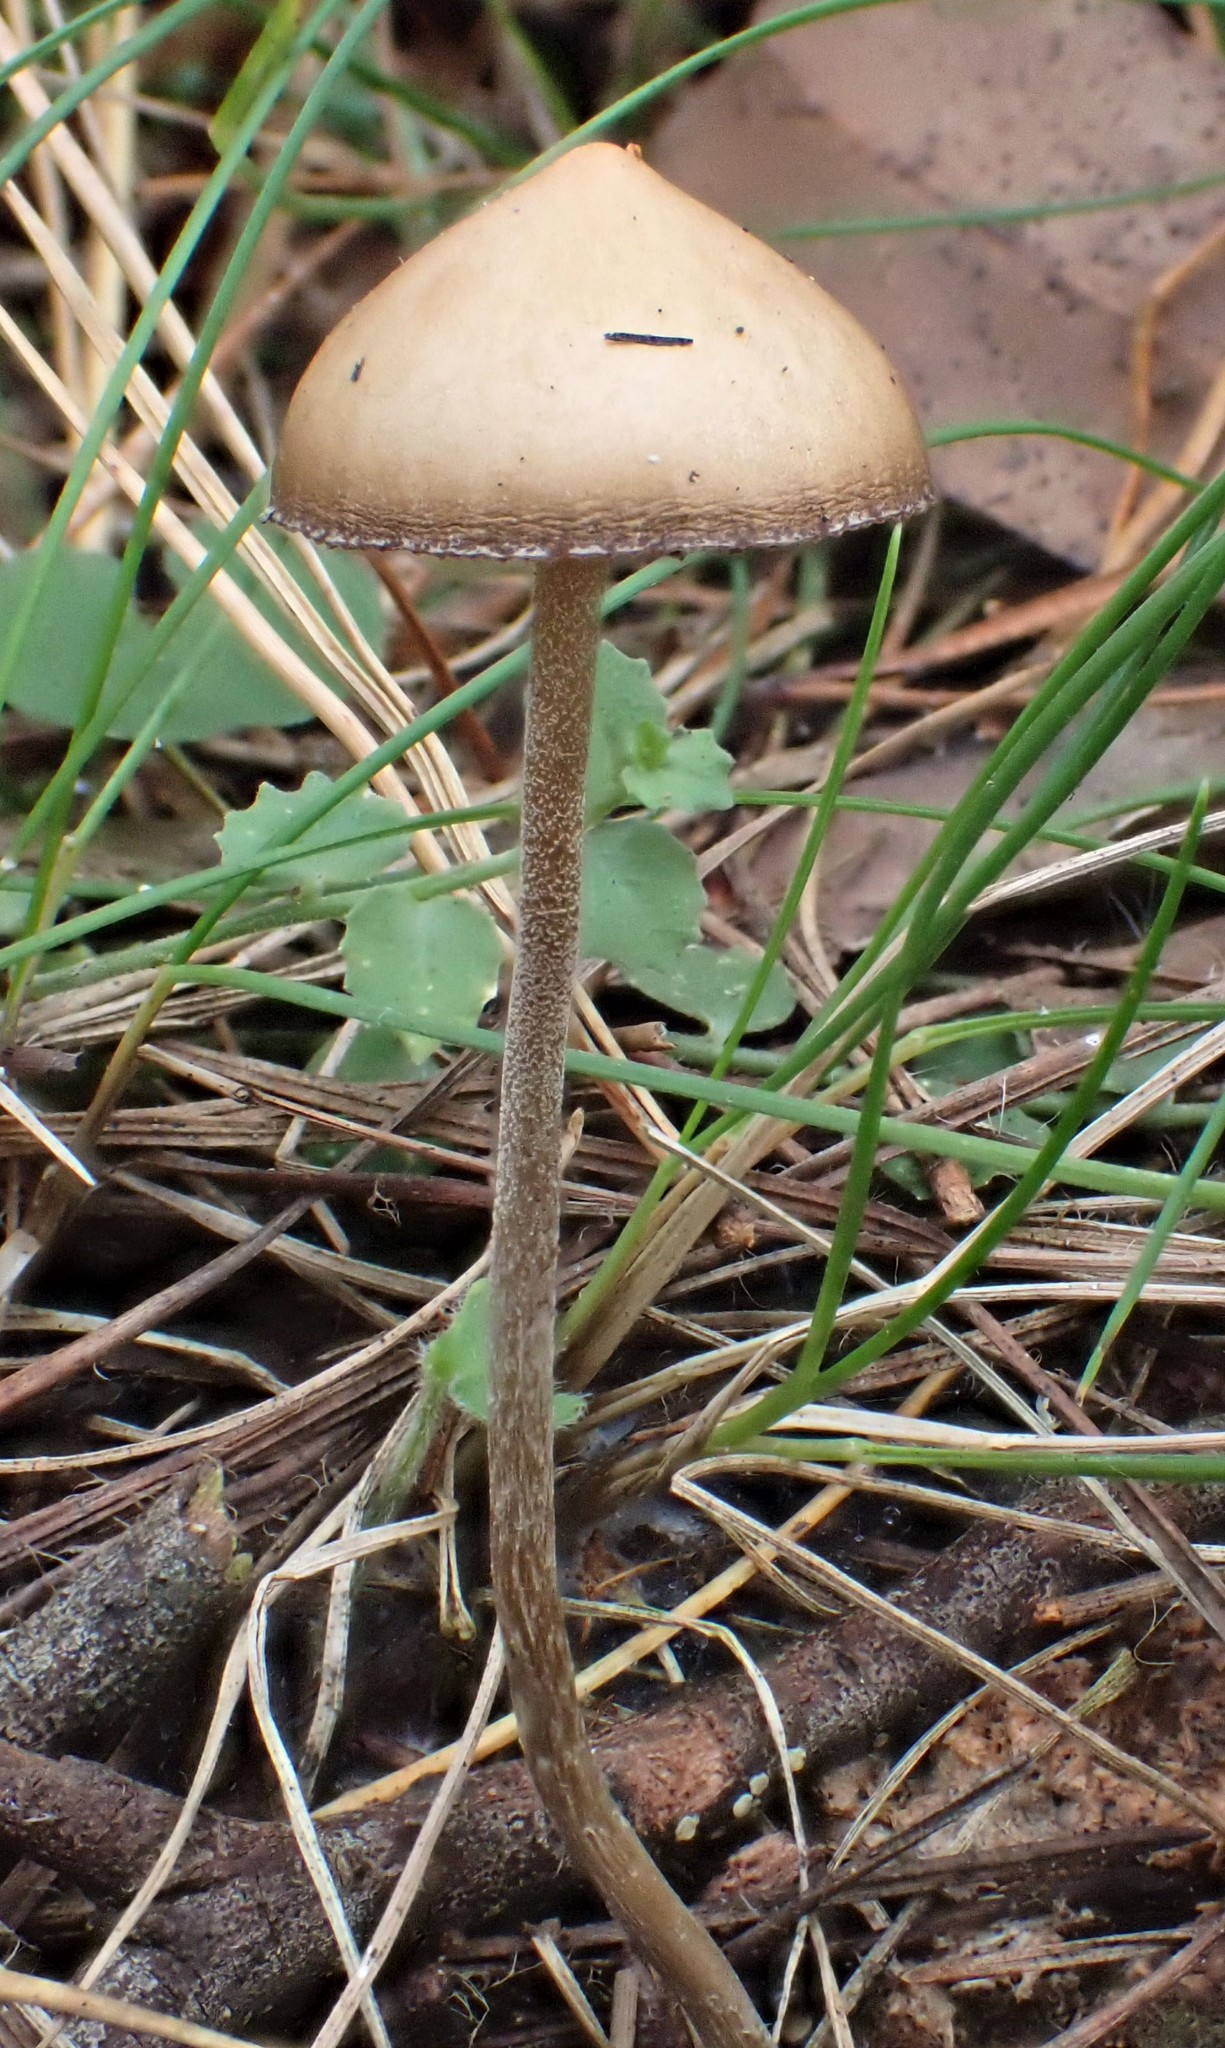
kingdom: Fungi
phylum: Basidiomycota
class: Agaricomycetes
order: Agaricales
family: Hymenogastraceae
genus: Psilocybe
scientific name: Psilocybe alutacea
